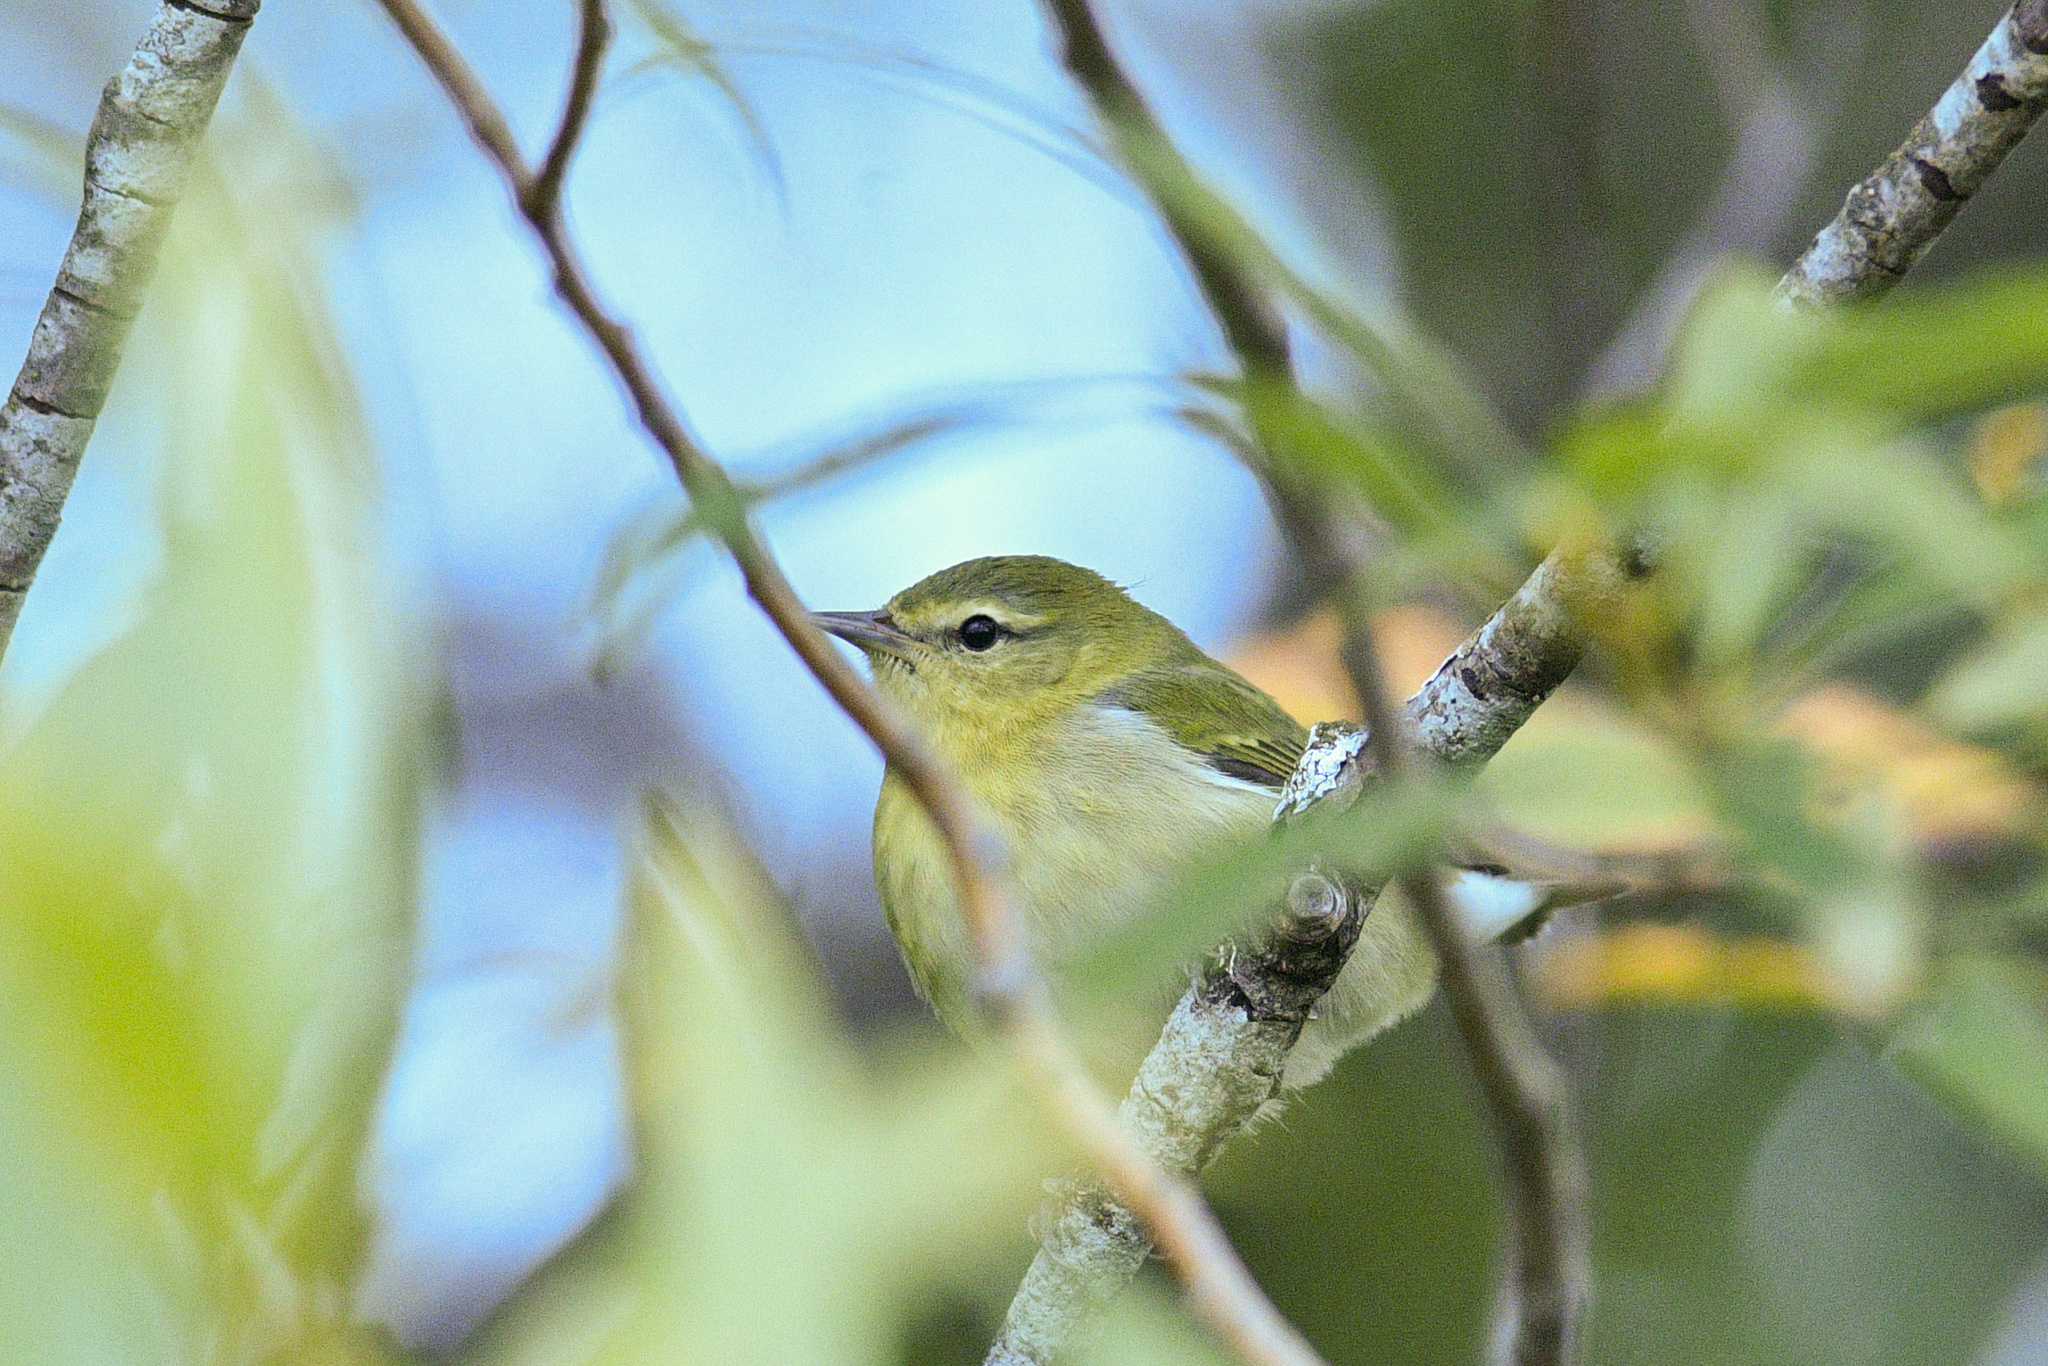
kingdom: Animalia
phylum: Chordata
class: Aves
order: Passeriformes
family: Parulidae
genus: Leiothlypis
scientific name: Leiothlypis peregrina
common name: Tennessee warbler
